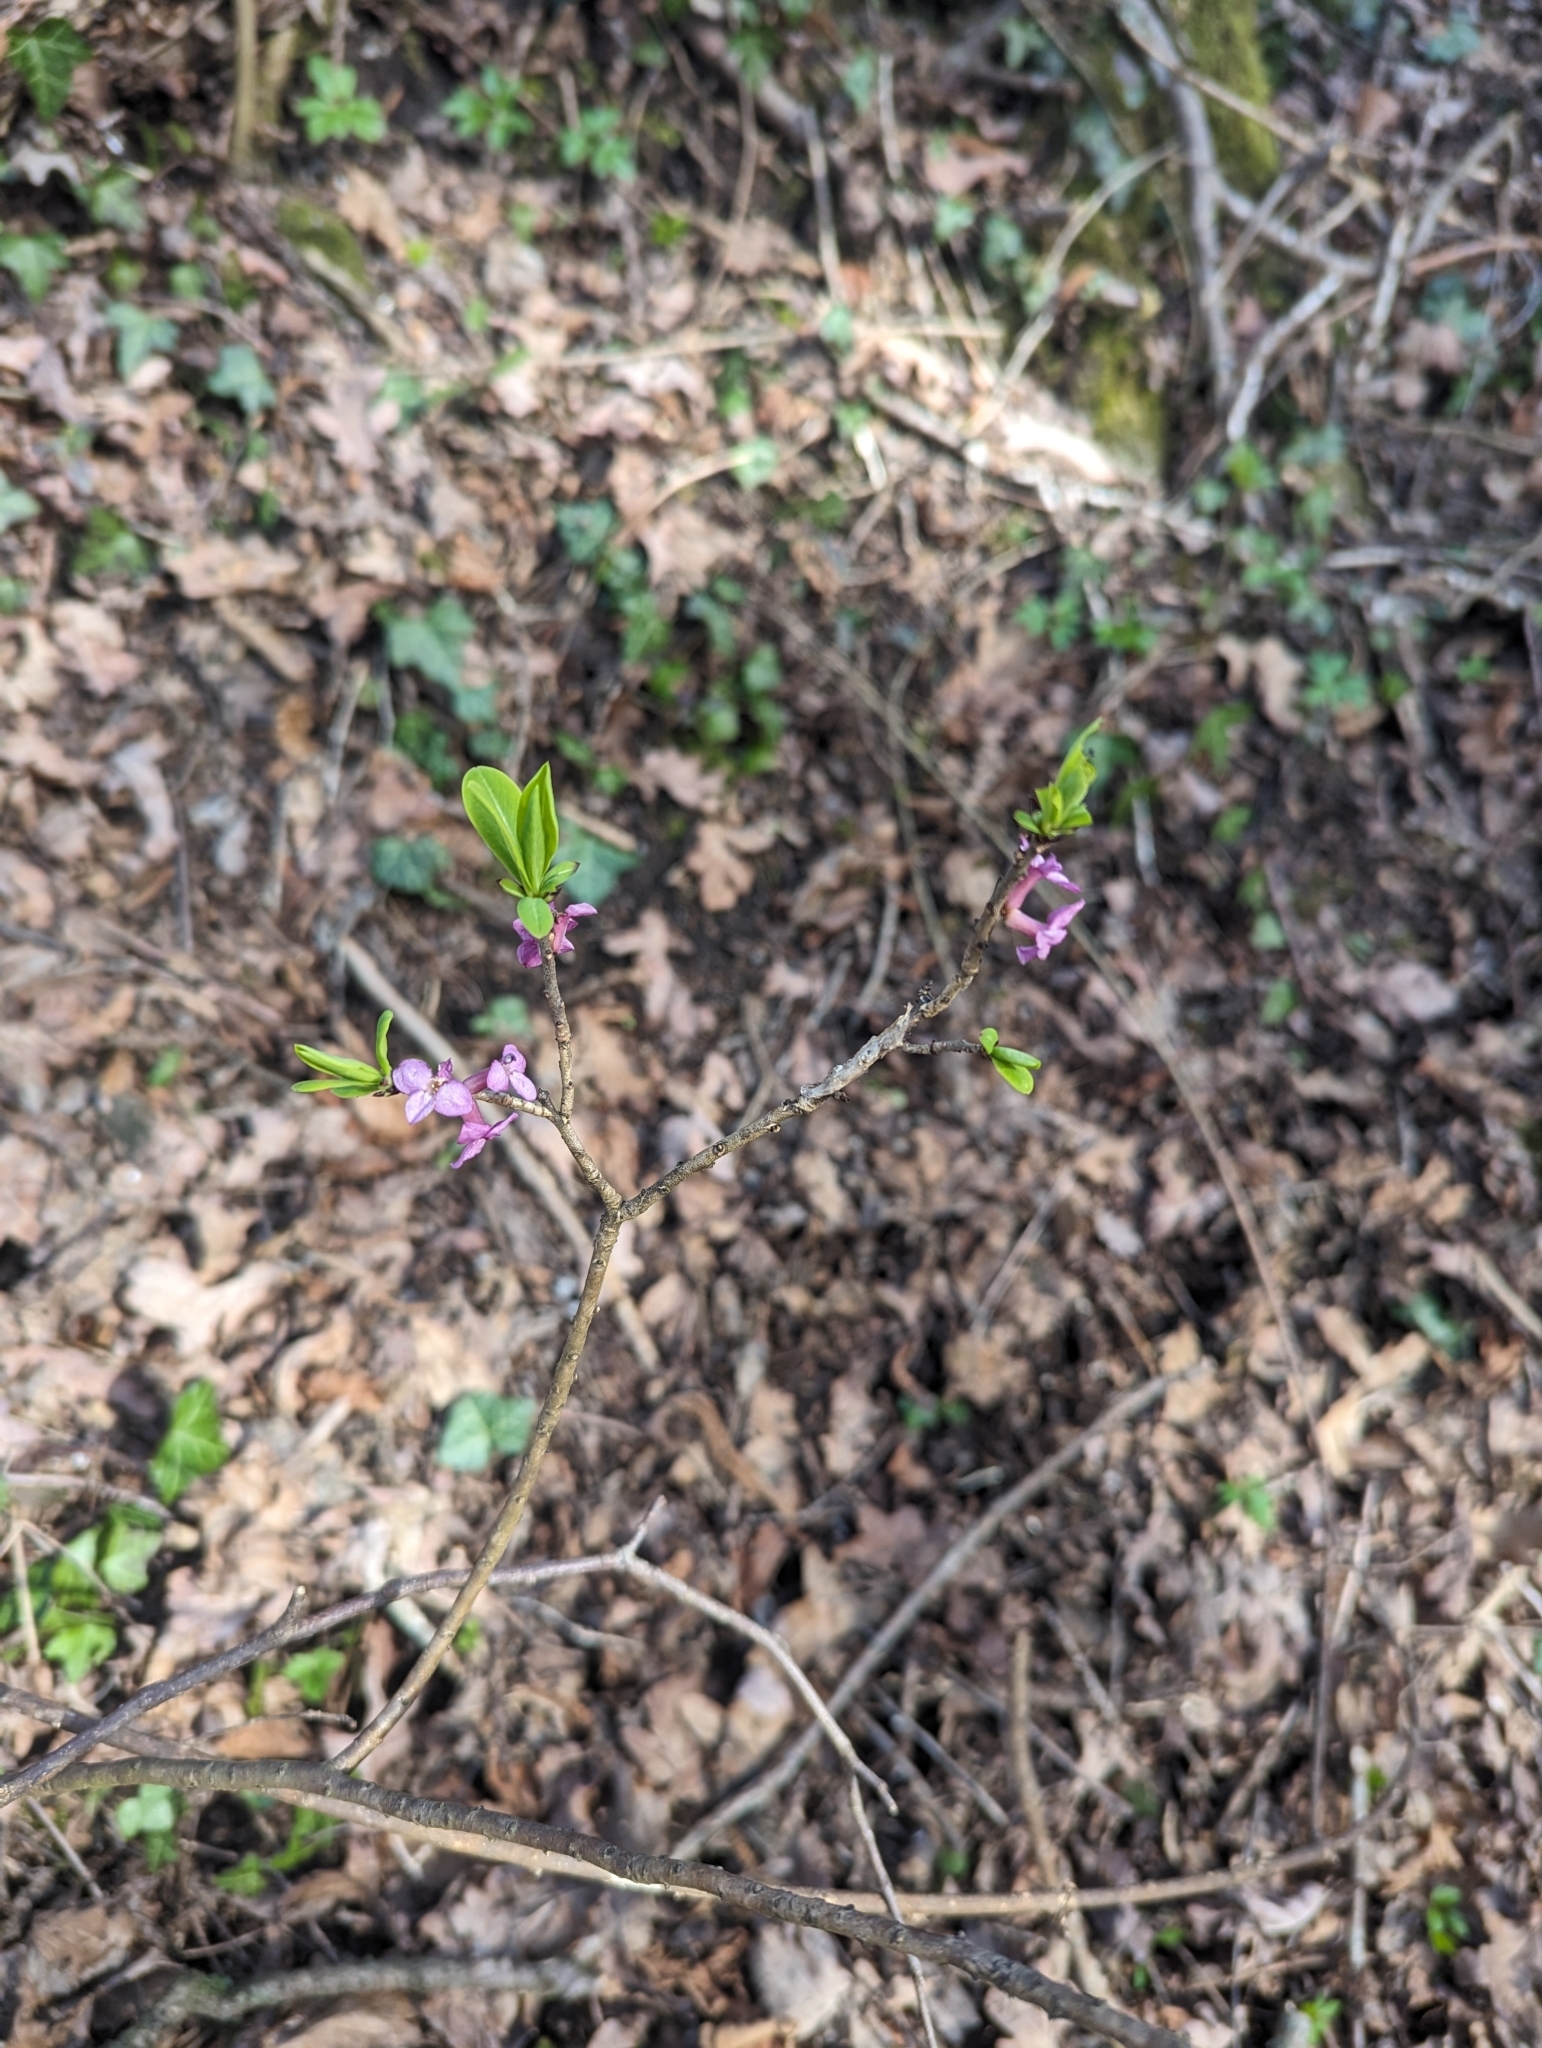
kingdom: Plantae
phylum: Tracheophyta
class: Magnoliopsida
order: Malvales
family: Thymelaeaceae
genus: Daphne
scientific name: Daphne mezereum
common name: Mezereon
